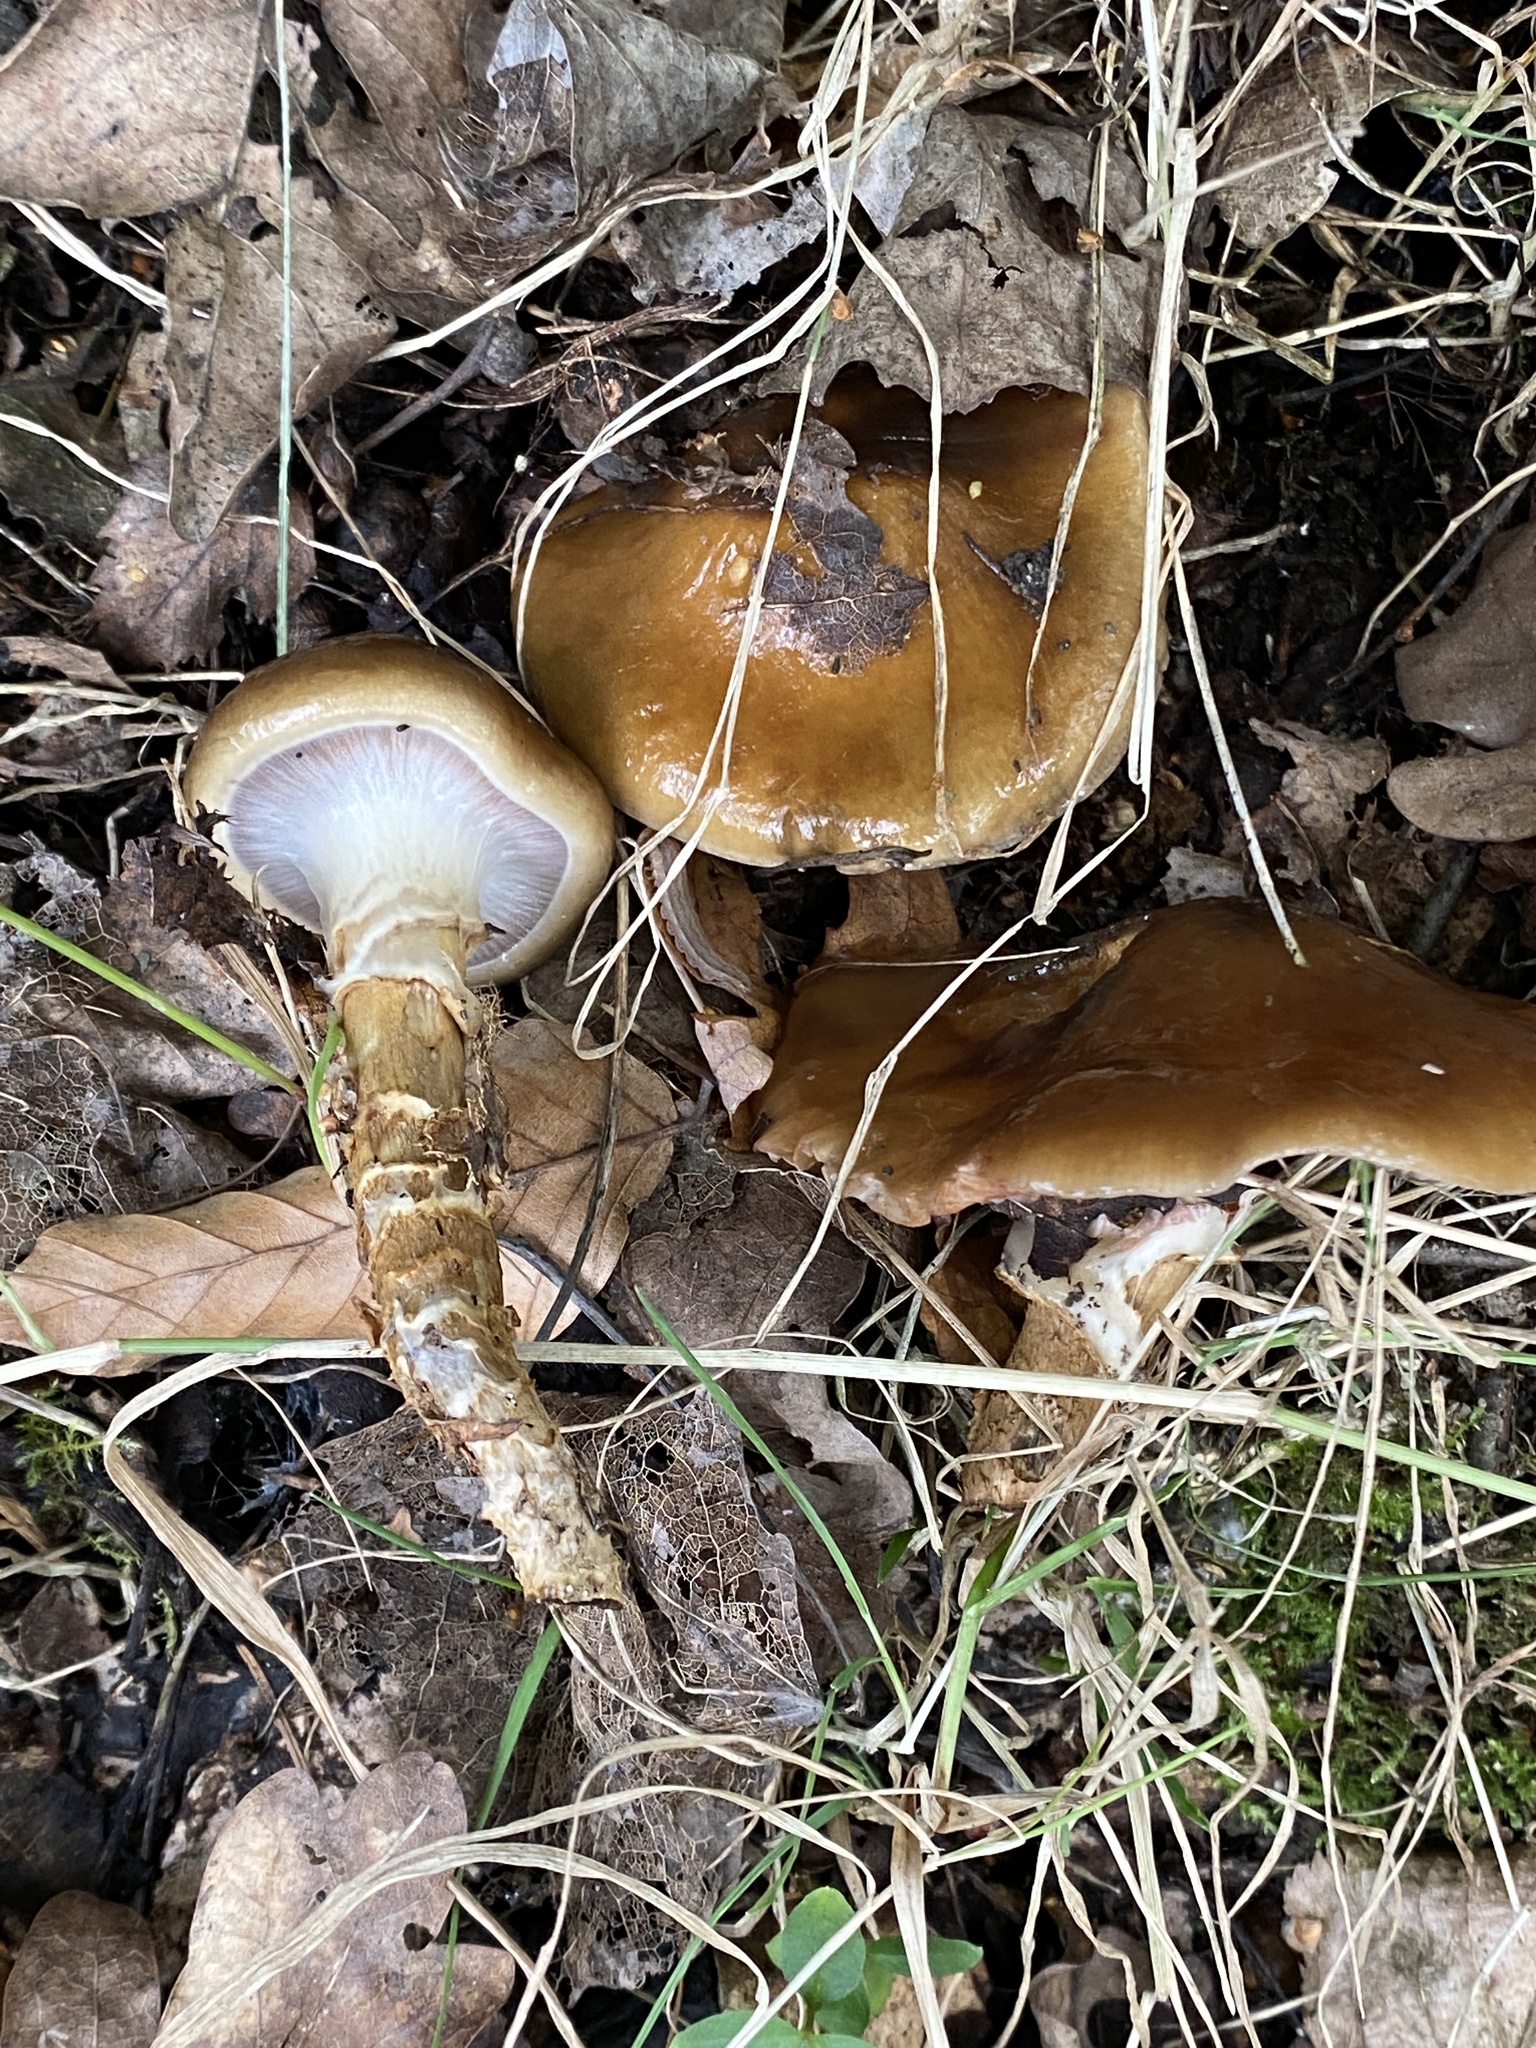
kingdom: Fungi
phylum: Basidiomycota
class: Agaricomycetes
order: Agaricales
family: Cortinariaceae
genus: Cortinarius
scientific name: Cortinarius trivialis
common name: Girdled webcap
